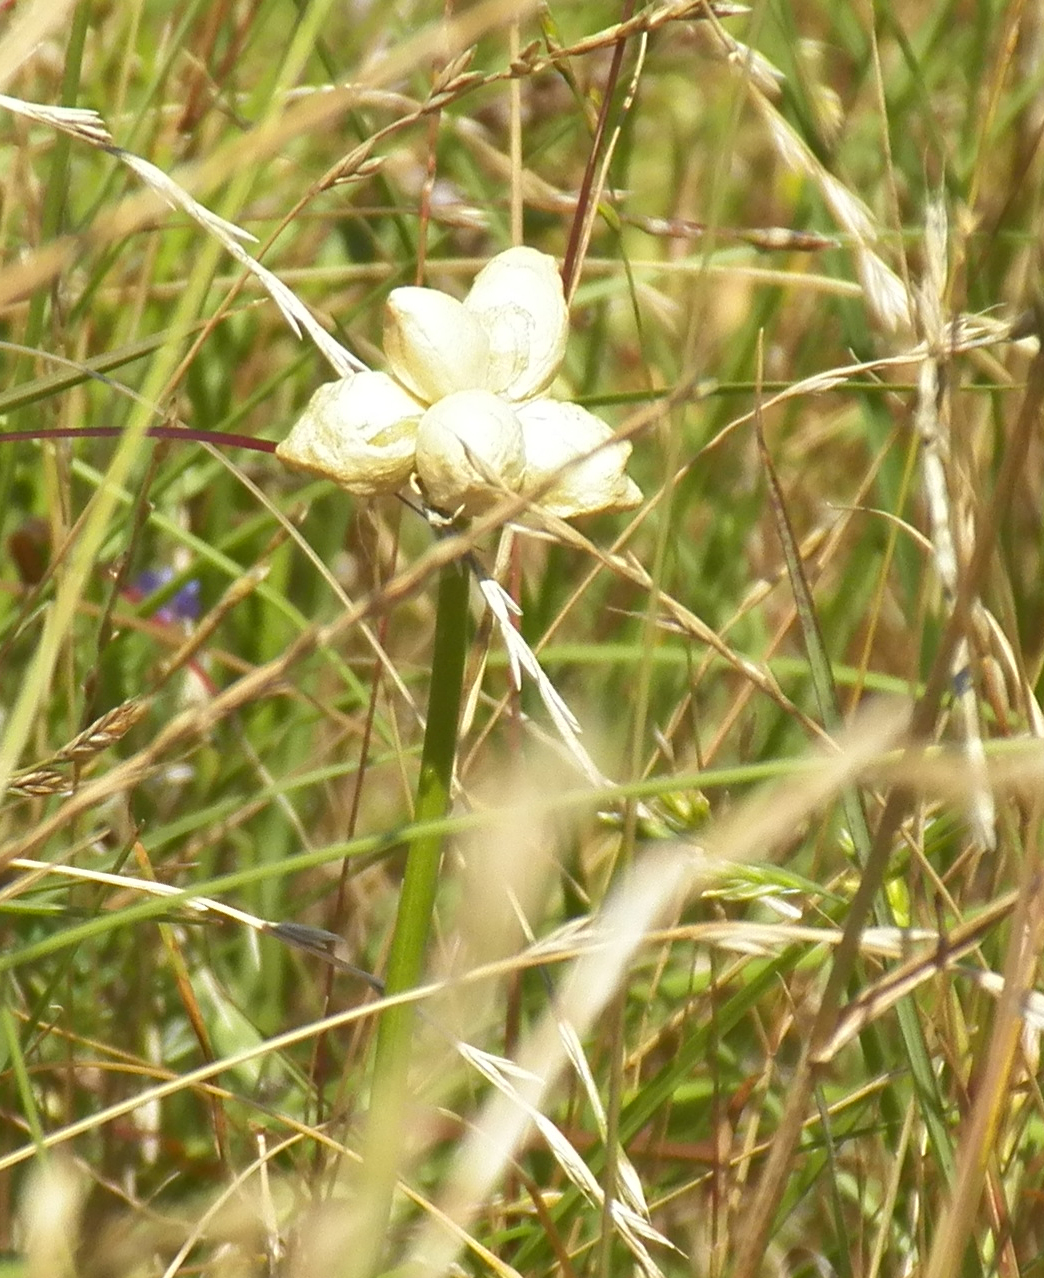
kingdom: Plantae
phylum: Tracheophyta
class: Liliopsida
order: Asparagales
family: Amaryllidaceae
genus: Allium
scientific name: Allium canadense
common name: Meadow garlic
